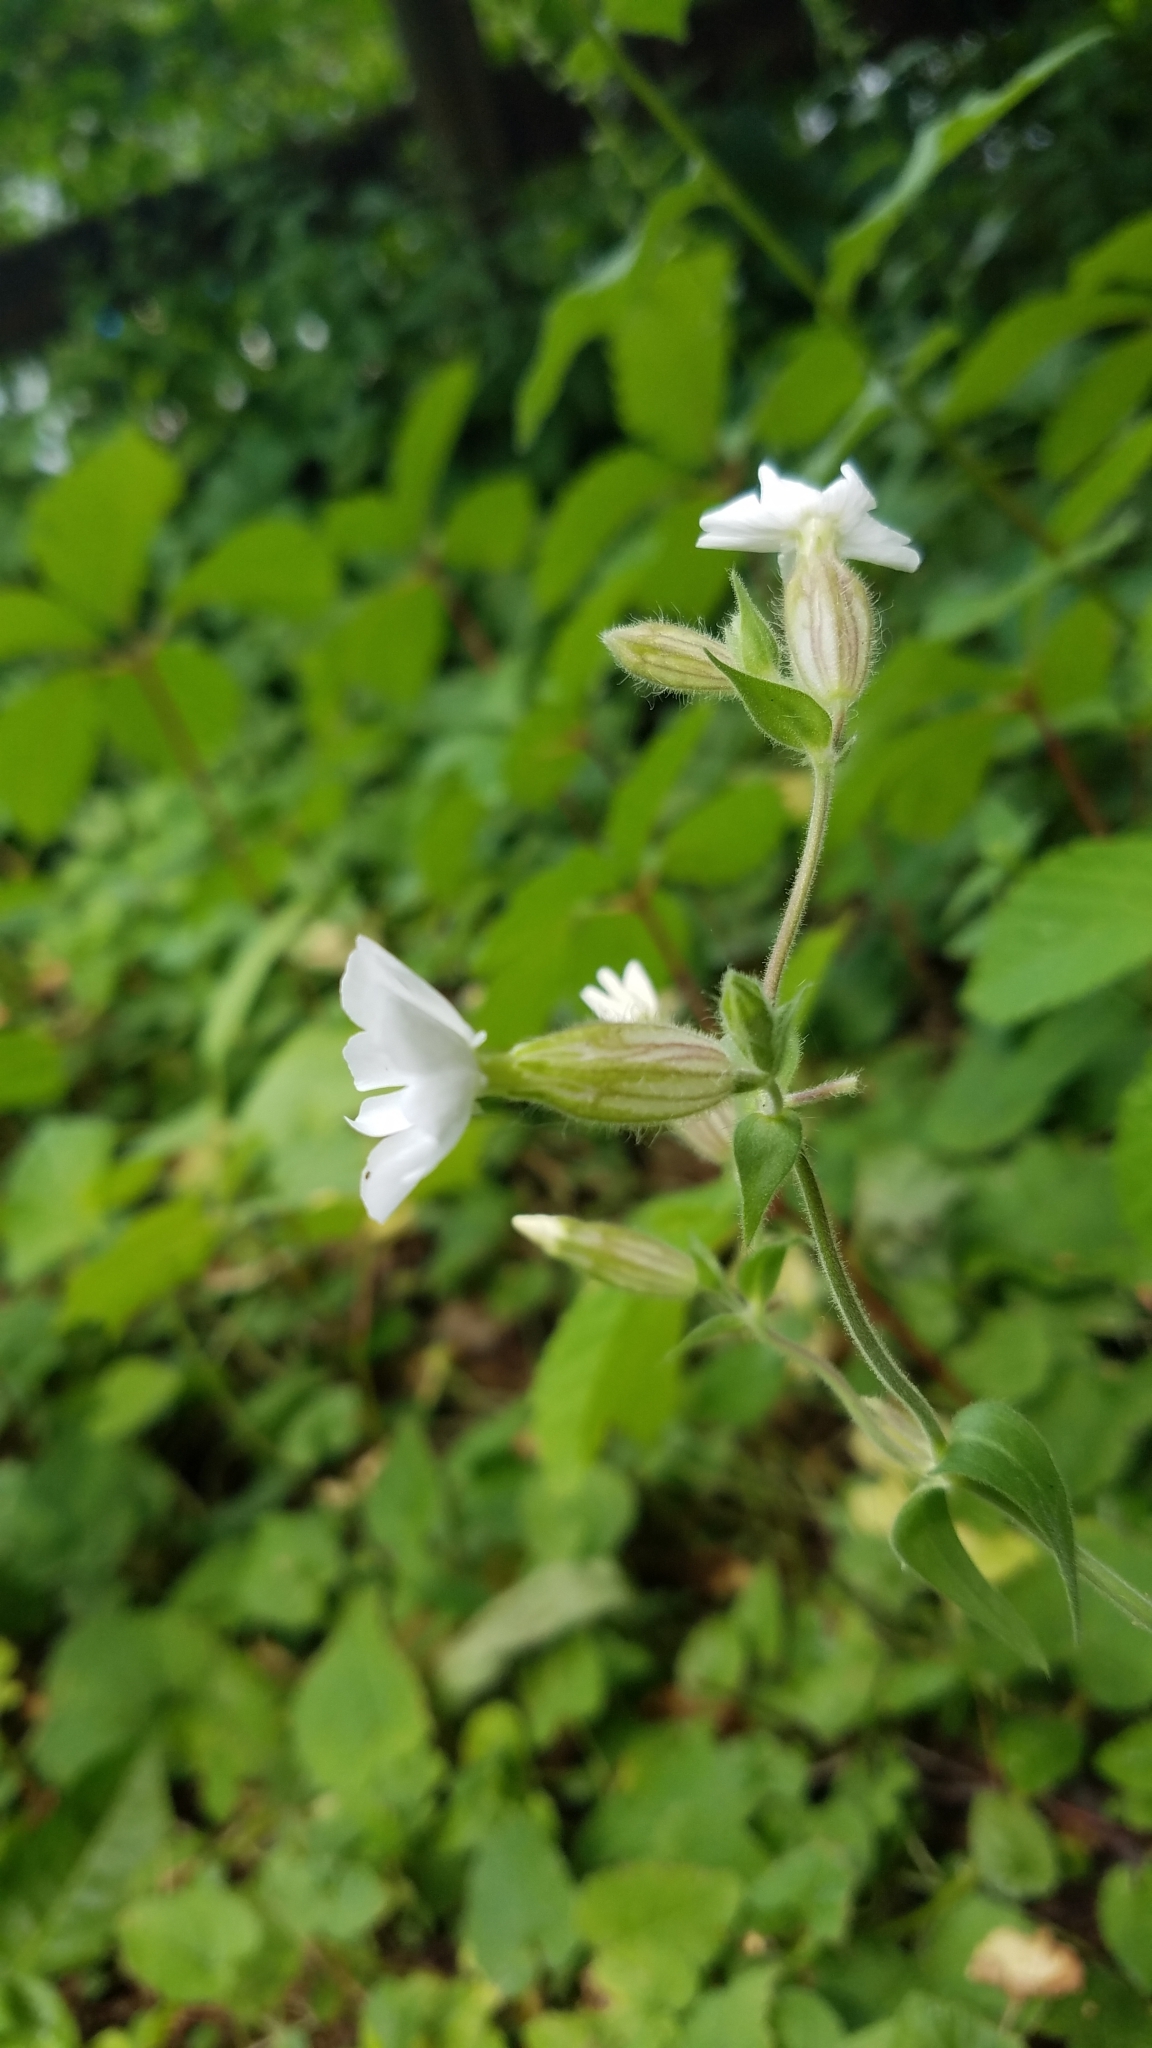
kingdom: Plantae
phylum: Tracheophyta
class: Magnoliopsida
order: Caryophyllales
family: Caryophyllaceae
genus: Silene
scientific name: Silene latifolia
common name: White campion
